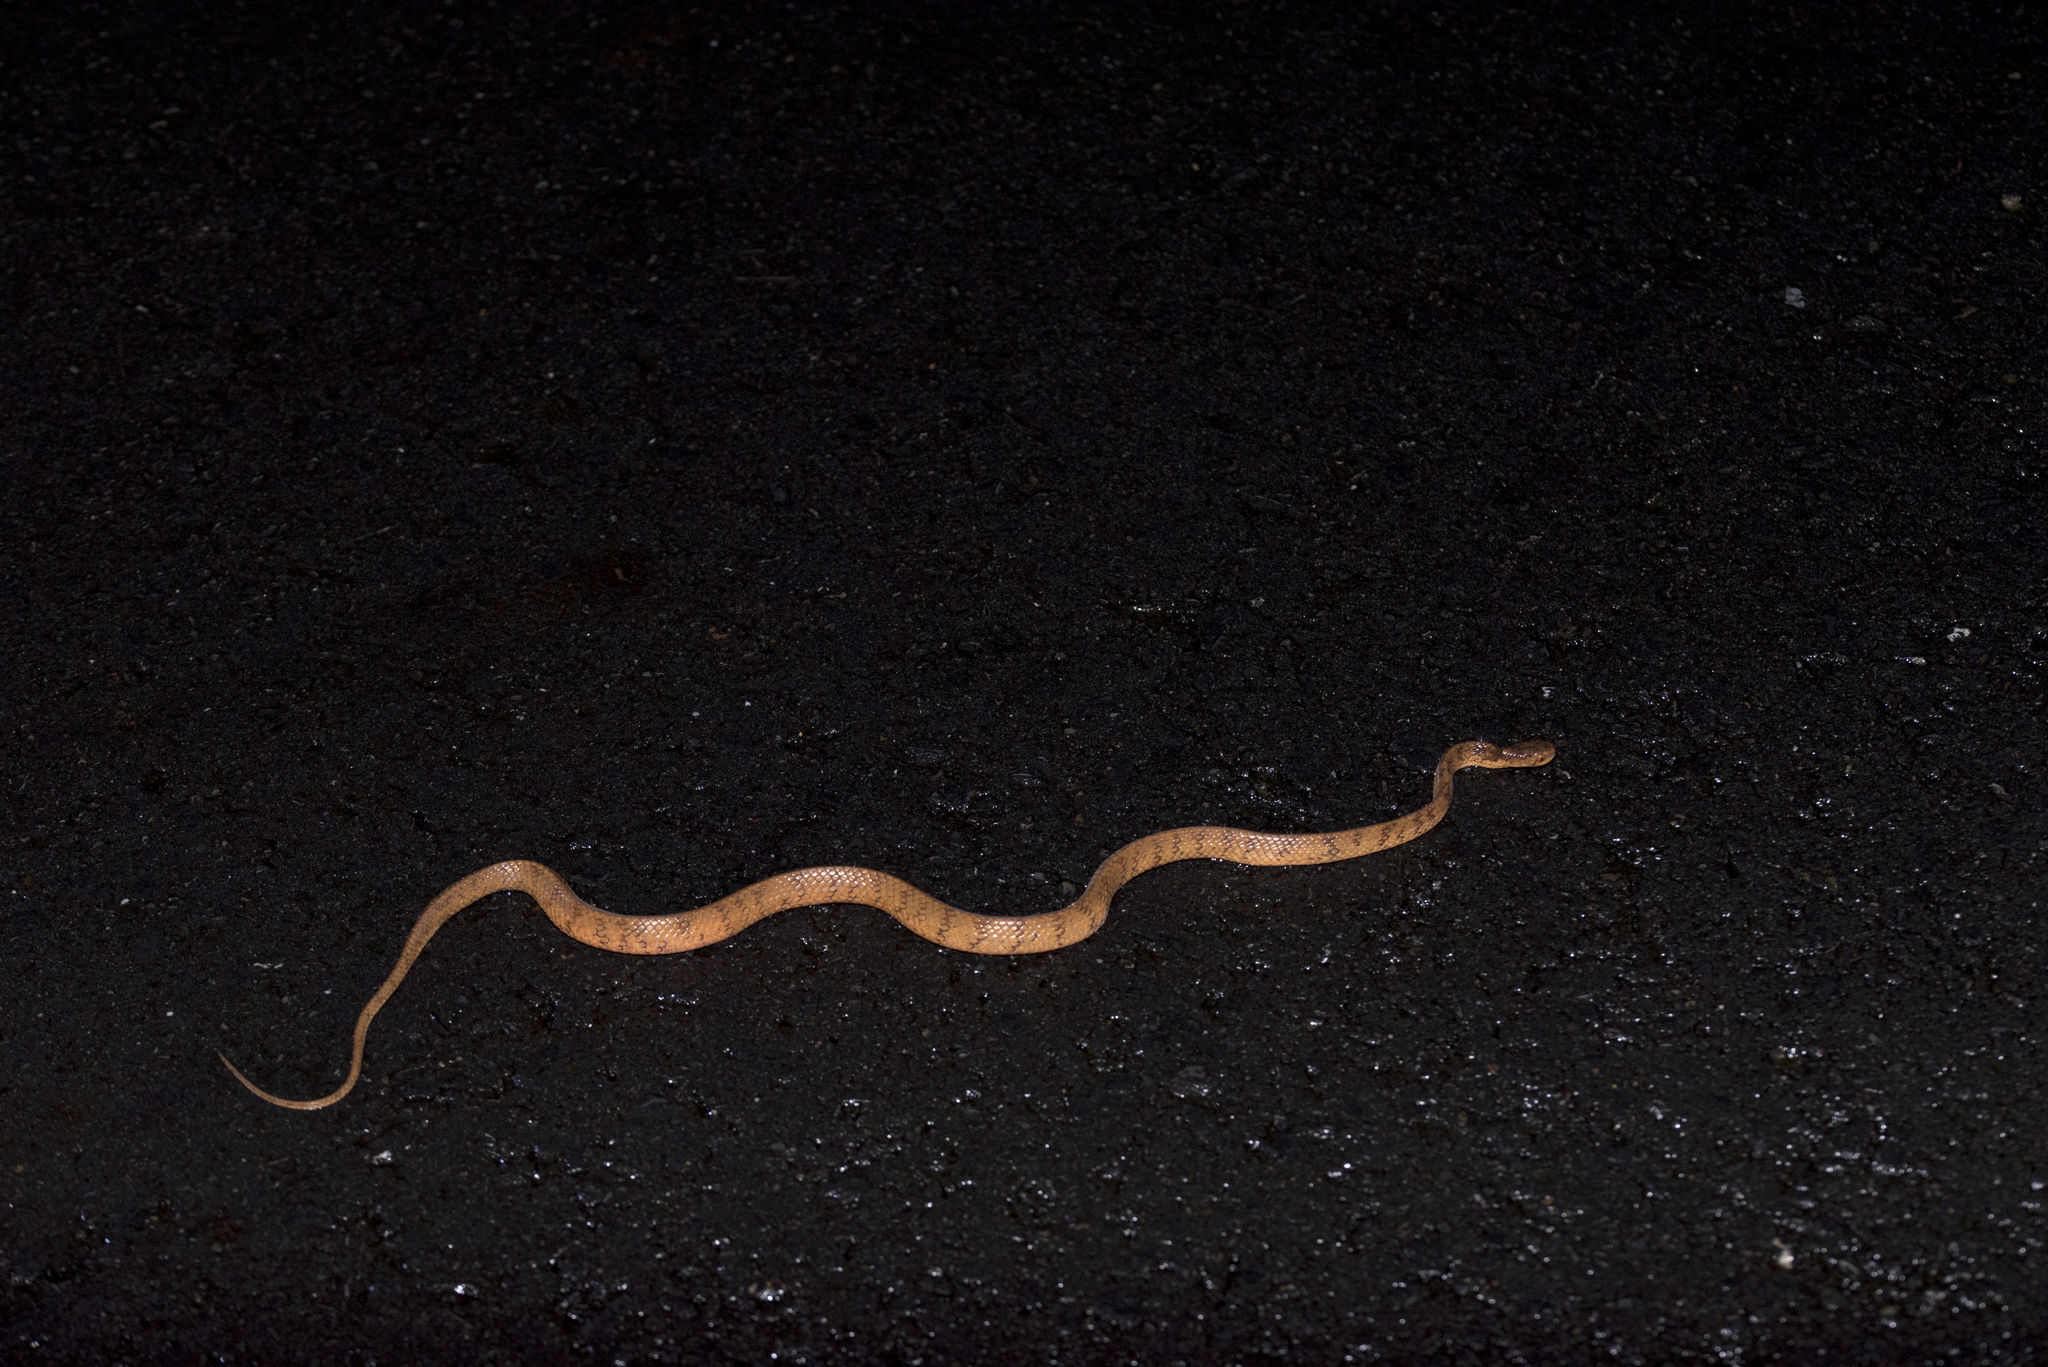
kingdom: Animalia
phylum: Chordata
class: Squamata
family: Pareidae
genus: Pareas
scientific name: Pareas formosensis
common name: Formosa slug snake
